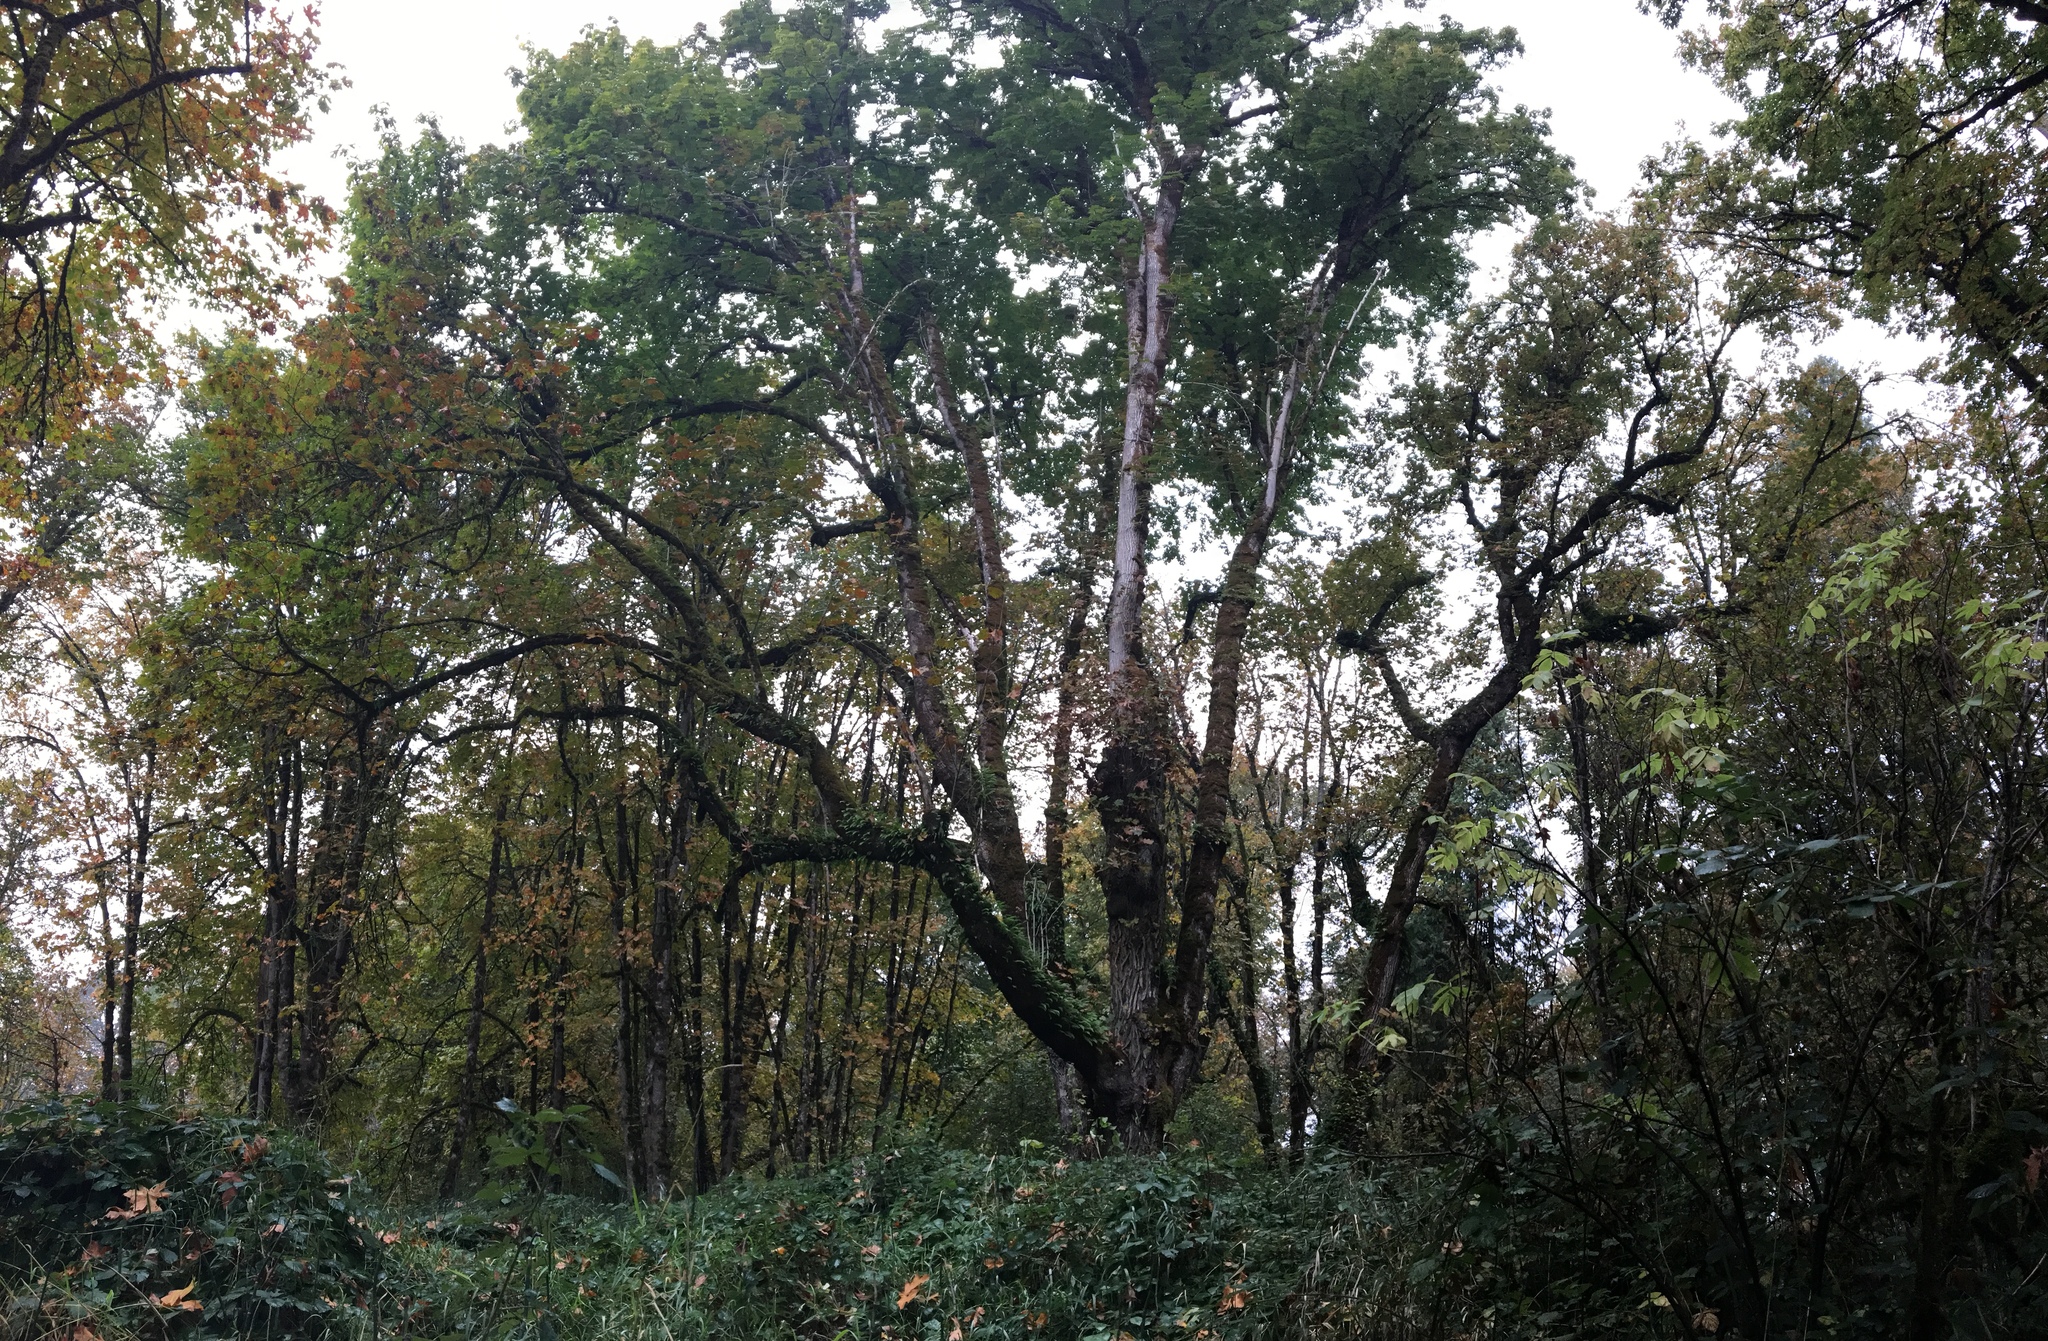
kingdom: Plantae
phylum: Tracheophyta
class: Magnoliopsida
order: Sapindales
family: Sapindaceae
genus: Acer
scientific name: Acer macrophyllum
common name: Oregon maple
